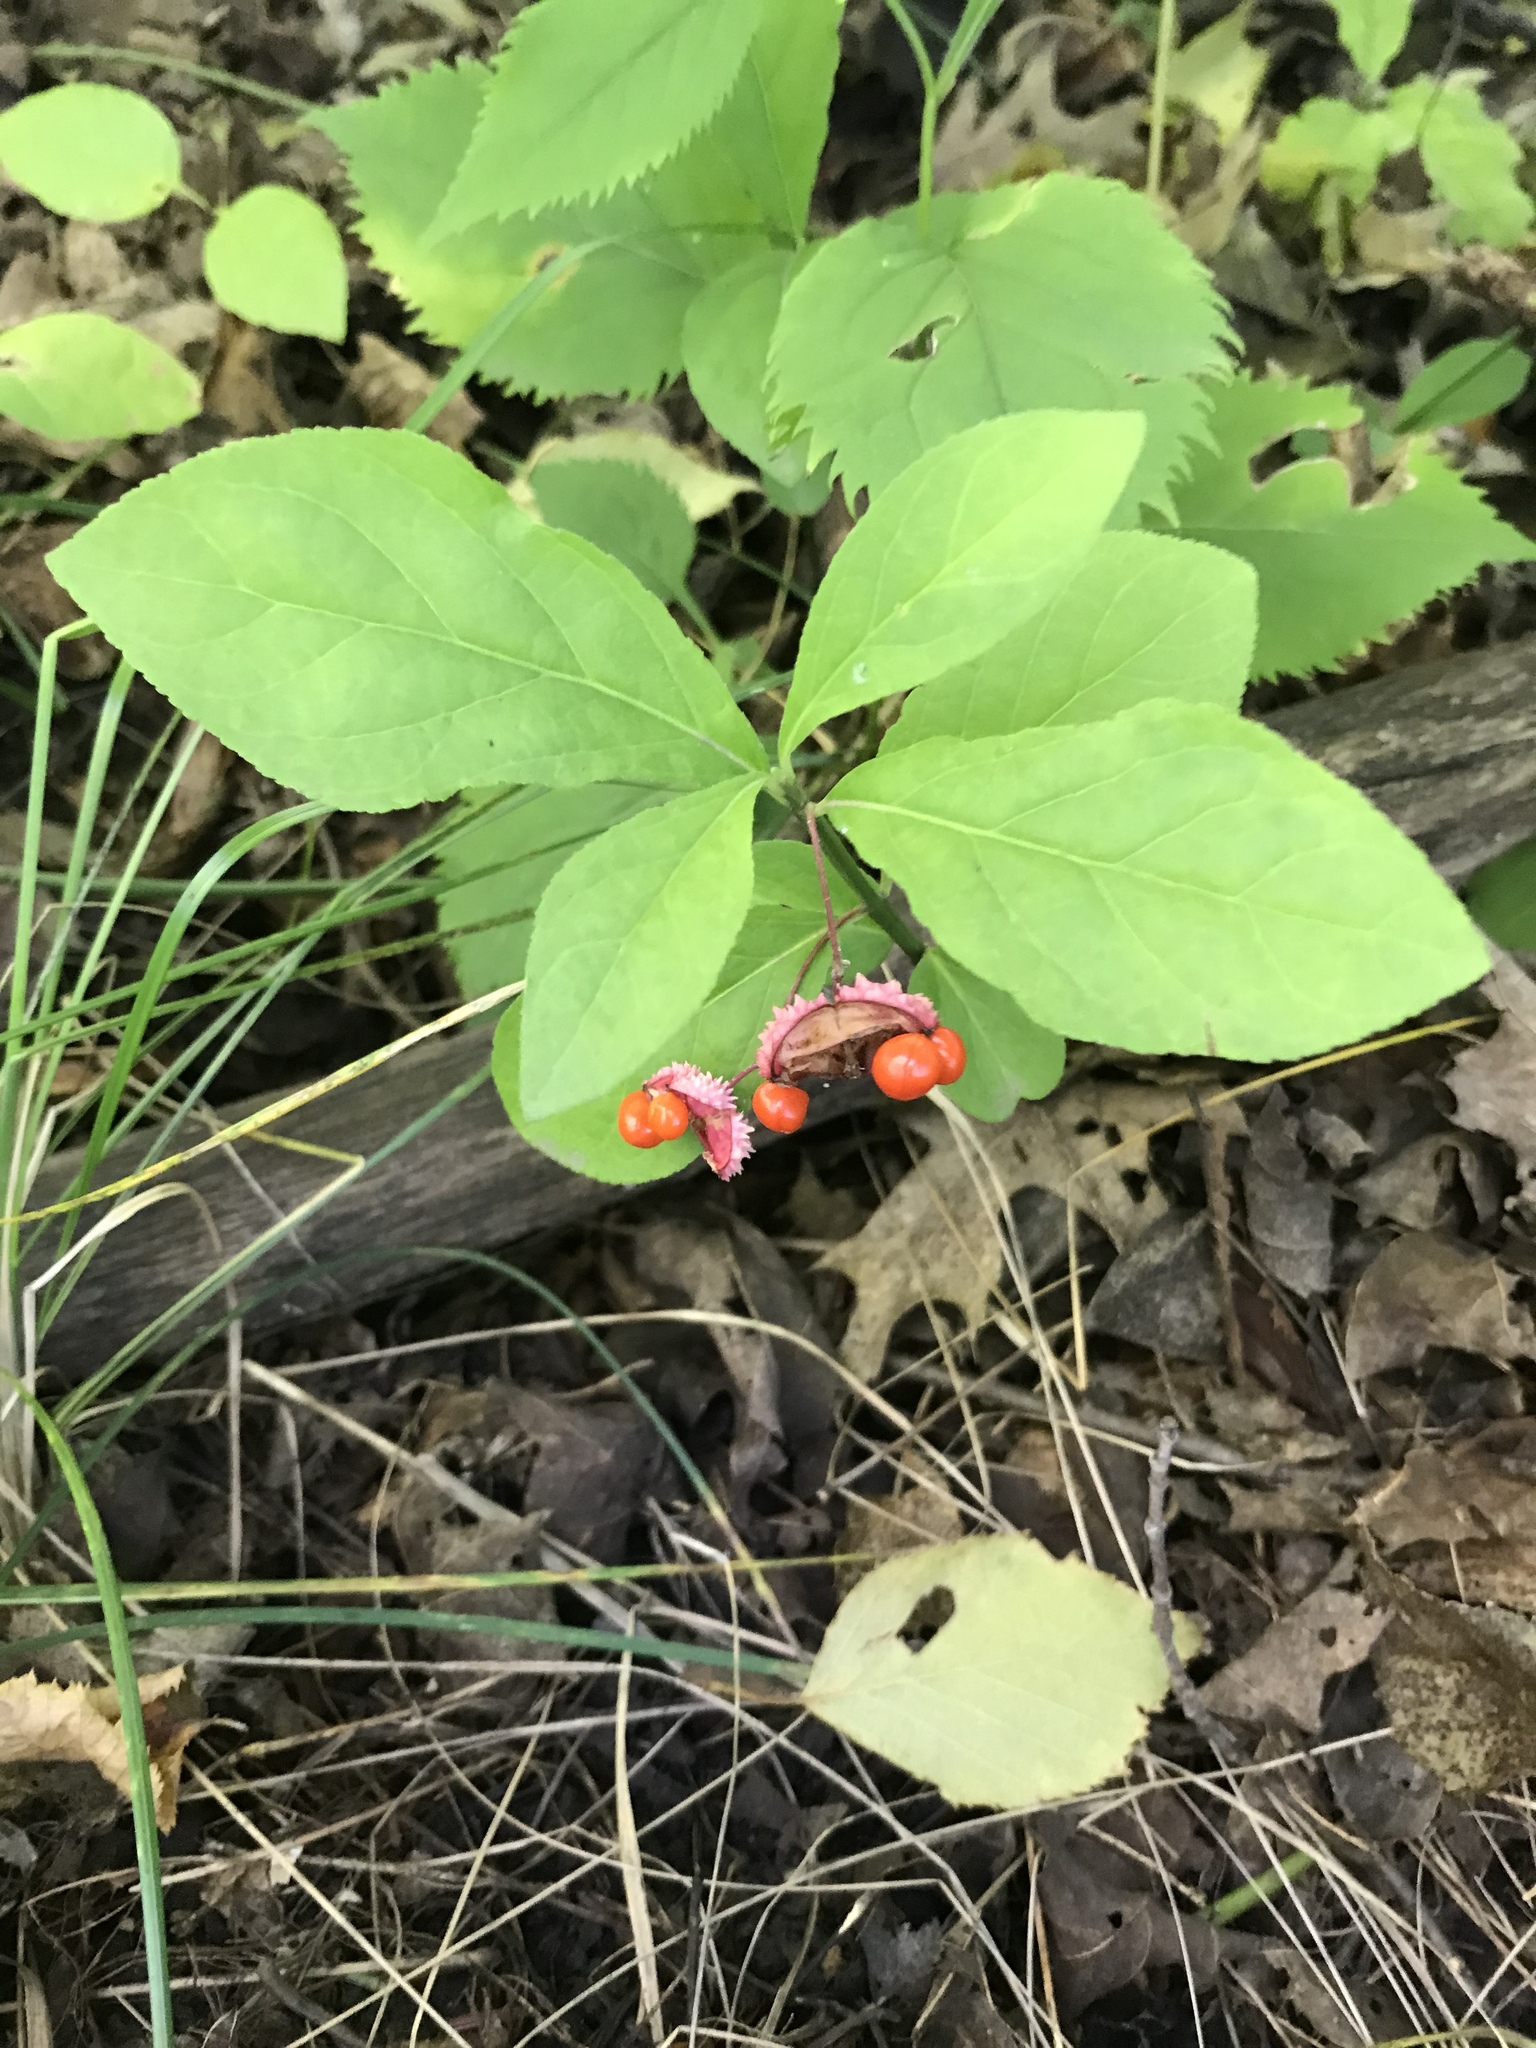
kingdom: Plantae
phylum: Tracheophyta
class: Magnoliopsida
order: Celastrales
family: Celastraceae
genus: Euonymus
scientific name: Euonymus obovatus
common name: Running strawberry-bush
